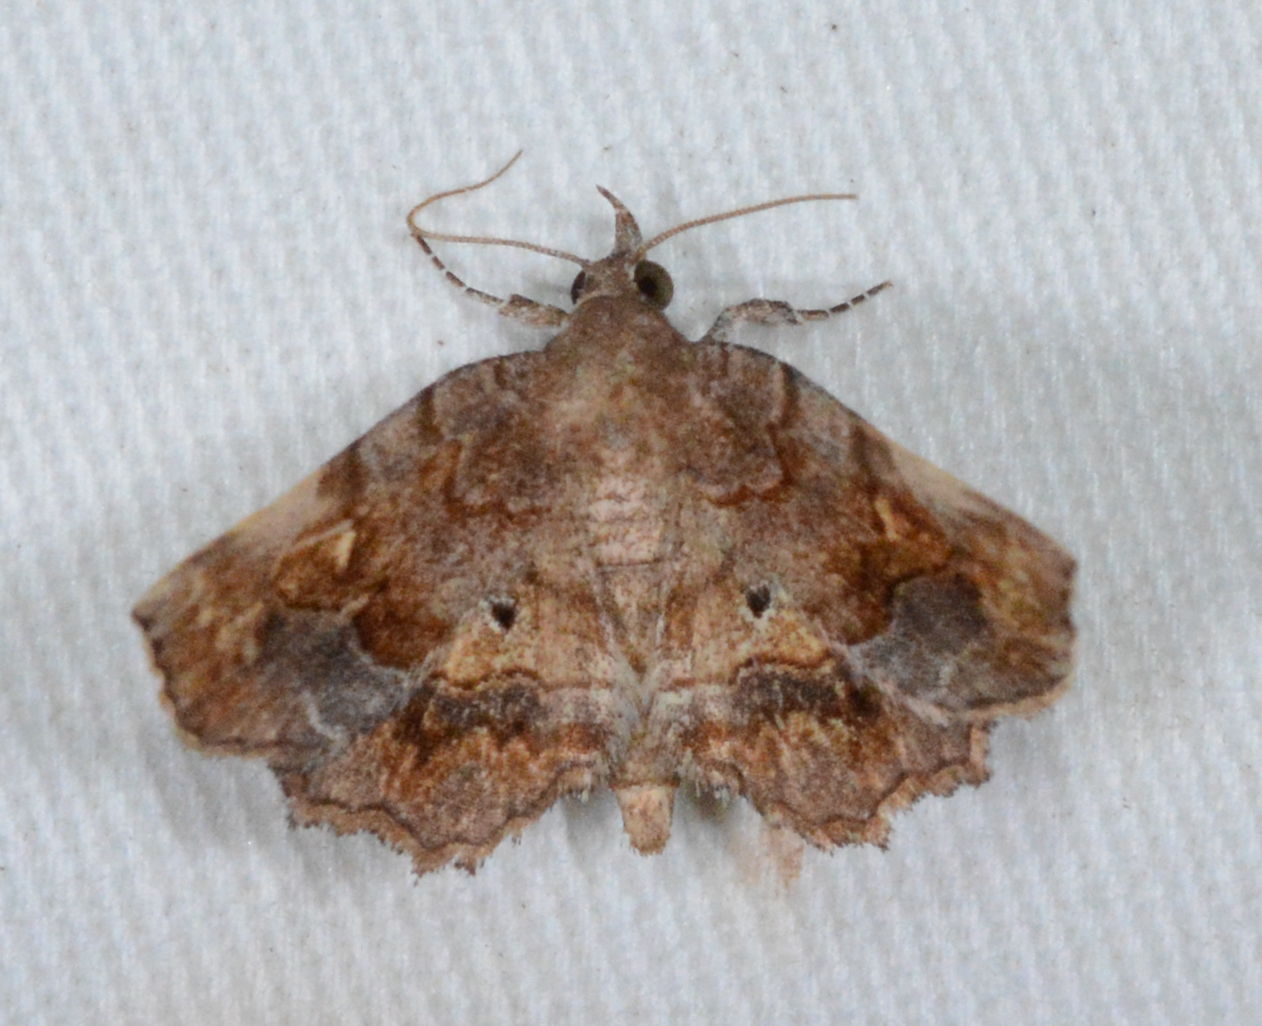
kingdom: Animalia
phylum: Arthropoda
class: Insecta
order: Lepidoptera
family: Erebidae
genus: Pangrapta
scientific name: Pangrapta decoralis
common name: Decorated owlet
